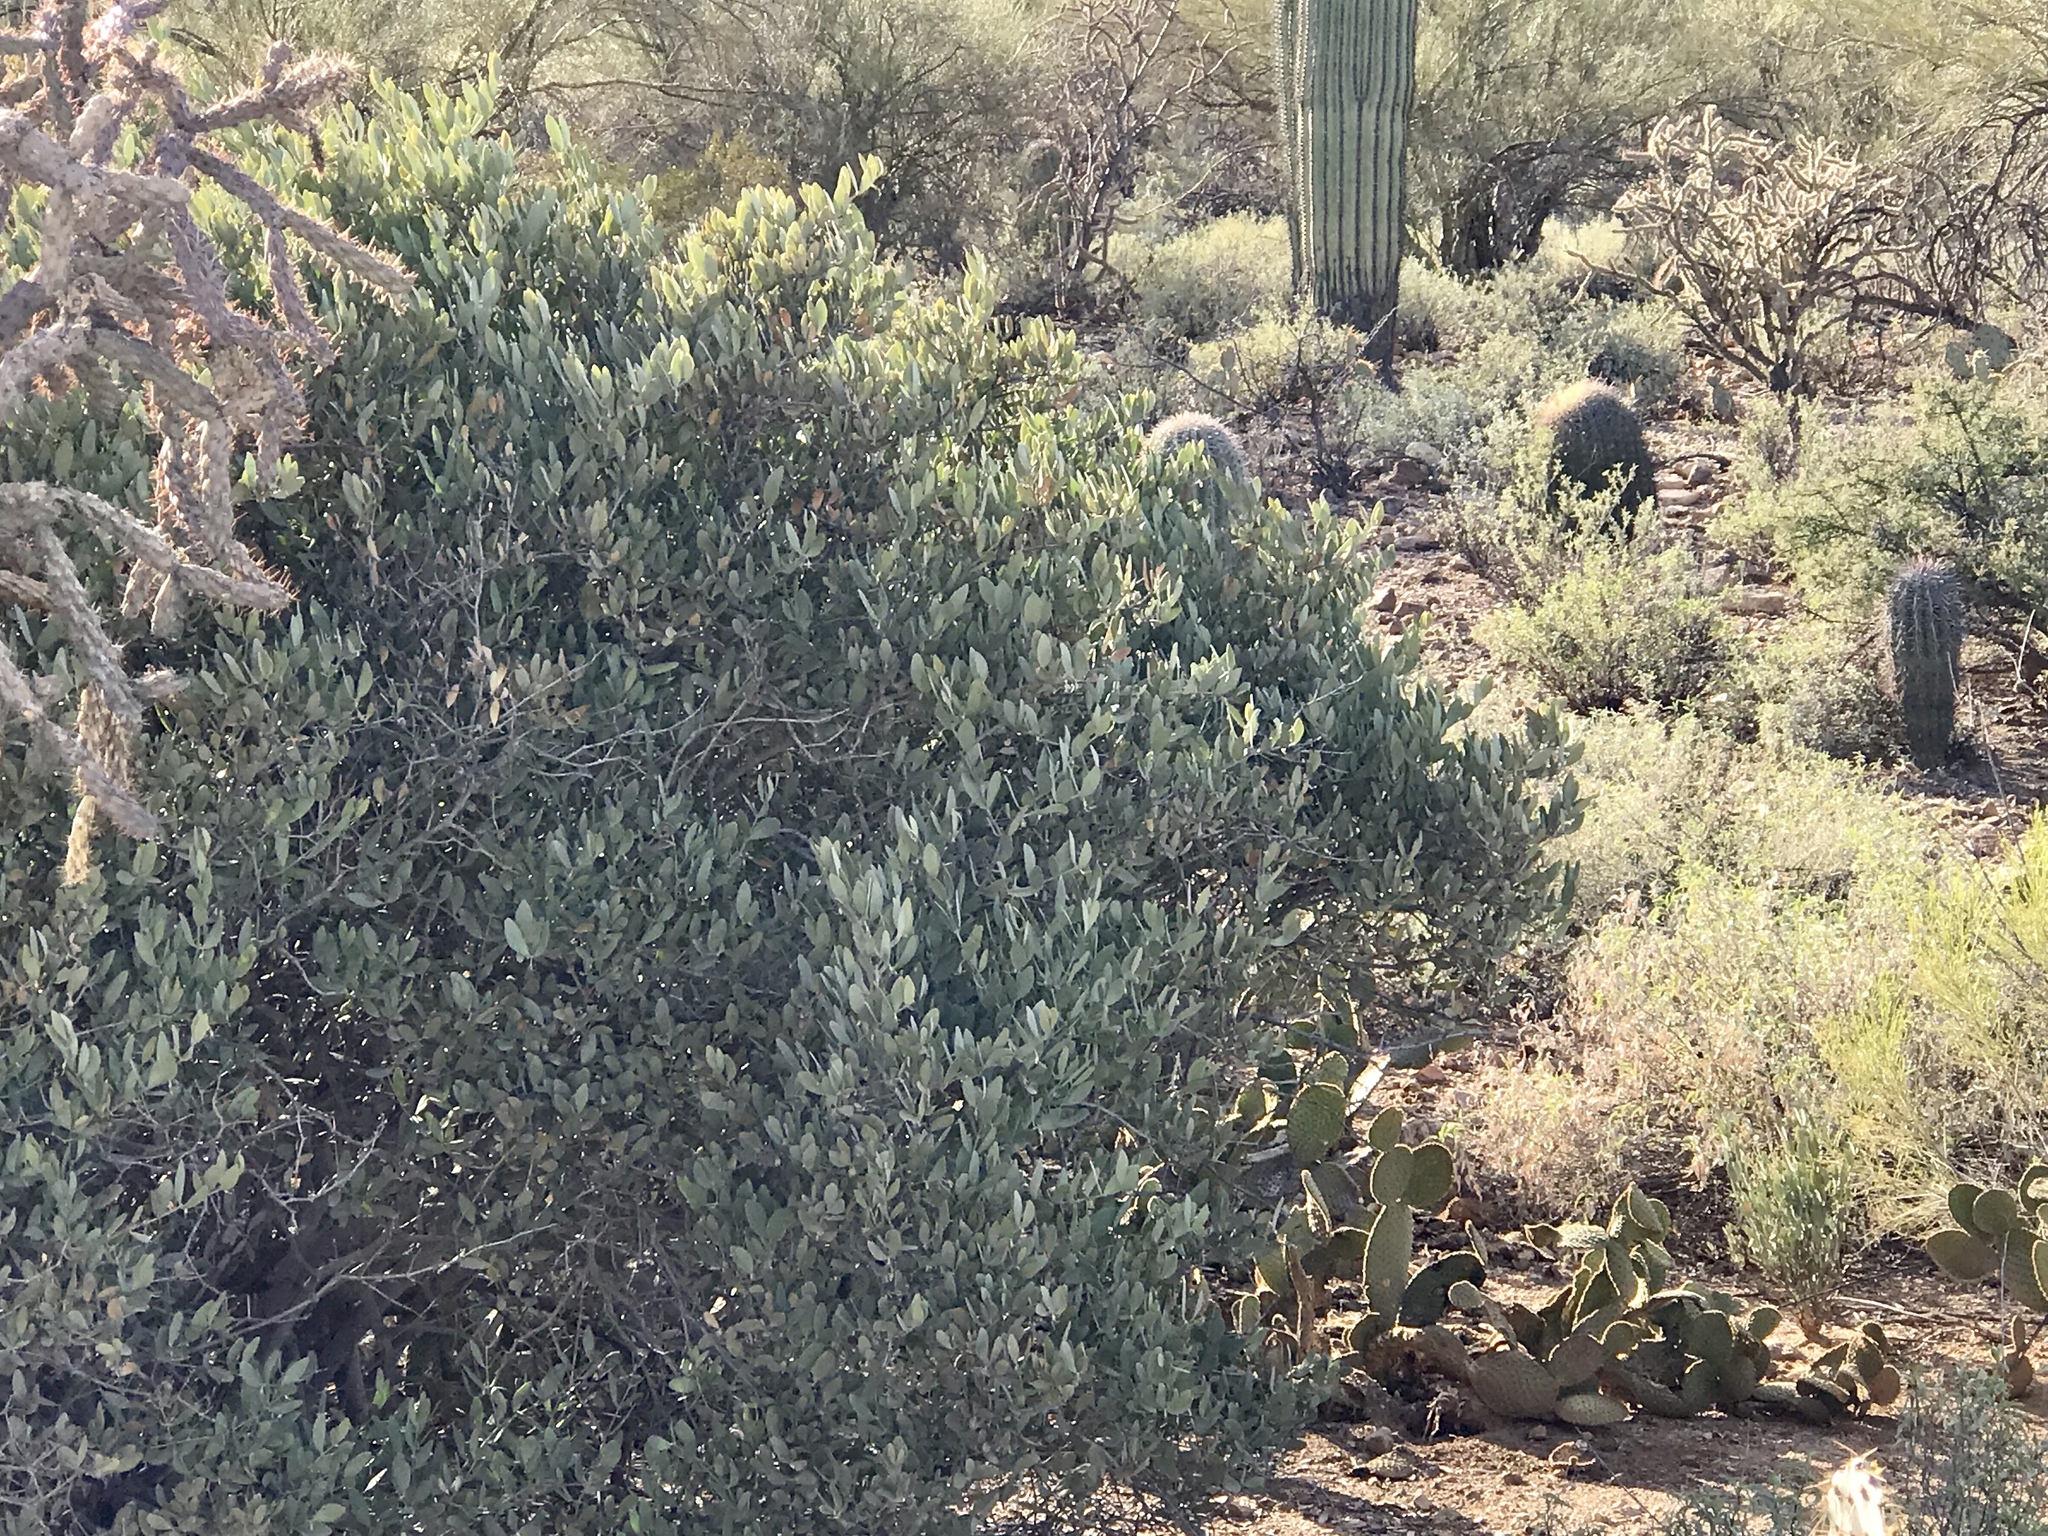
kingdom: Plantae
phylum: Tracheophyta
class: Magnoliopsida
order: Caryophyllales
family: Simmondsiaceae
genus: Simmondsia
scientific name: Simmondsia chinensis
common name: Jojoba
